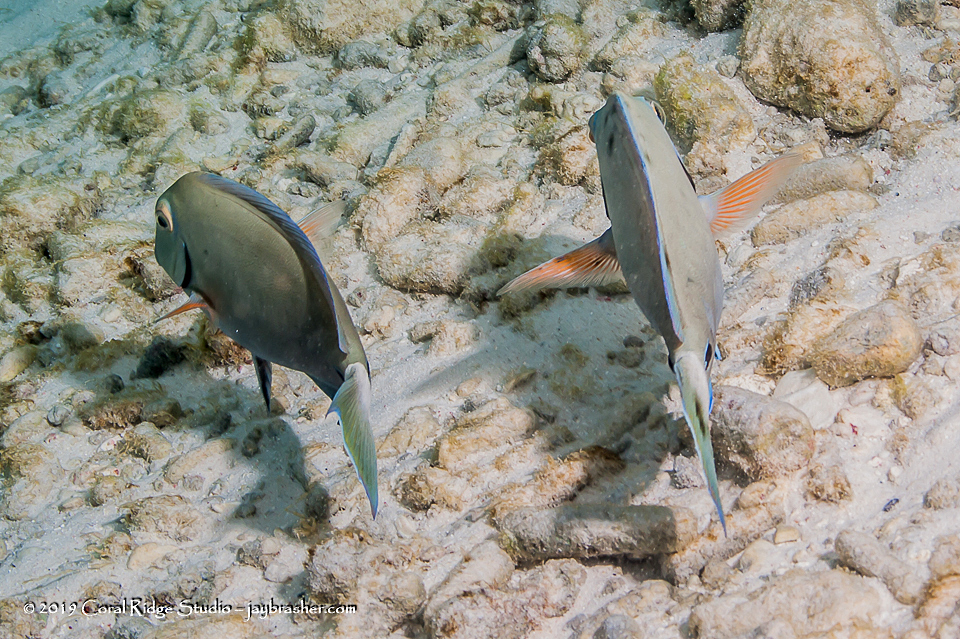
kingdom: Animalia
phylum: Chordata
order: Perciformes
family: Acanthuridae
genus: Acanthurus
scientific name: Acanthurus bahianus
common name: Ocean surgeon
